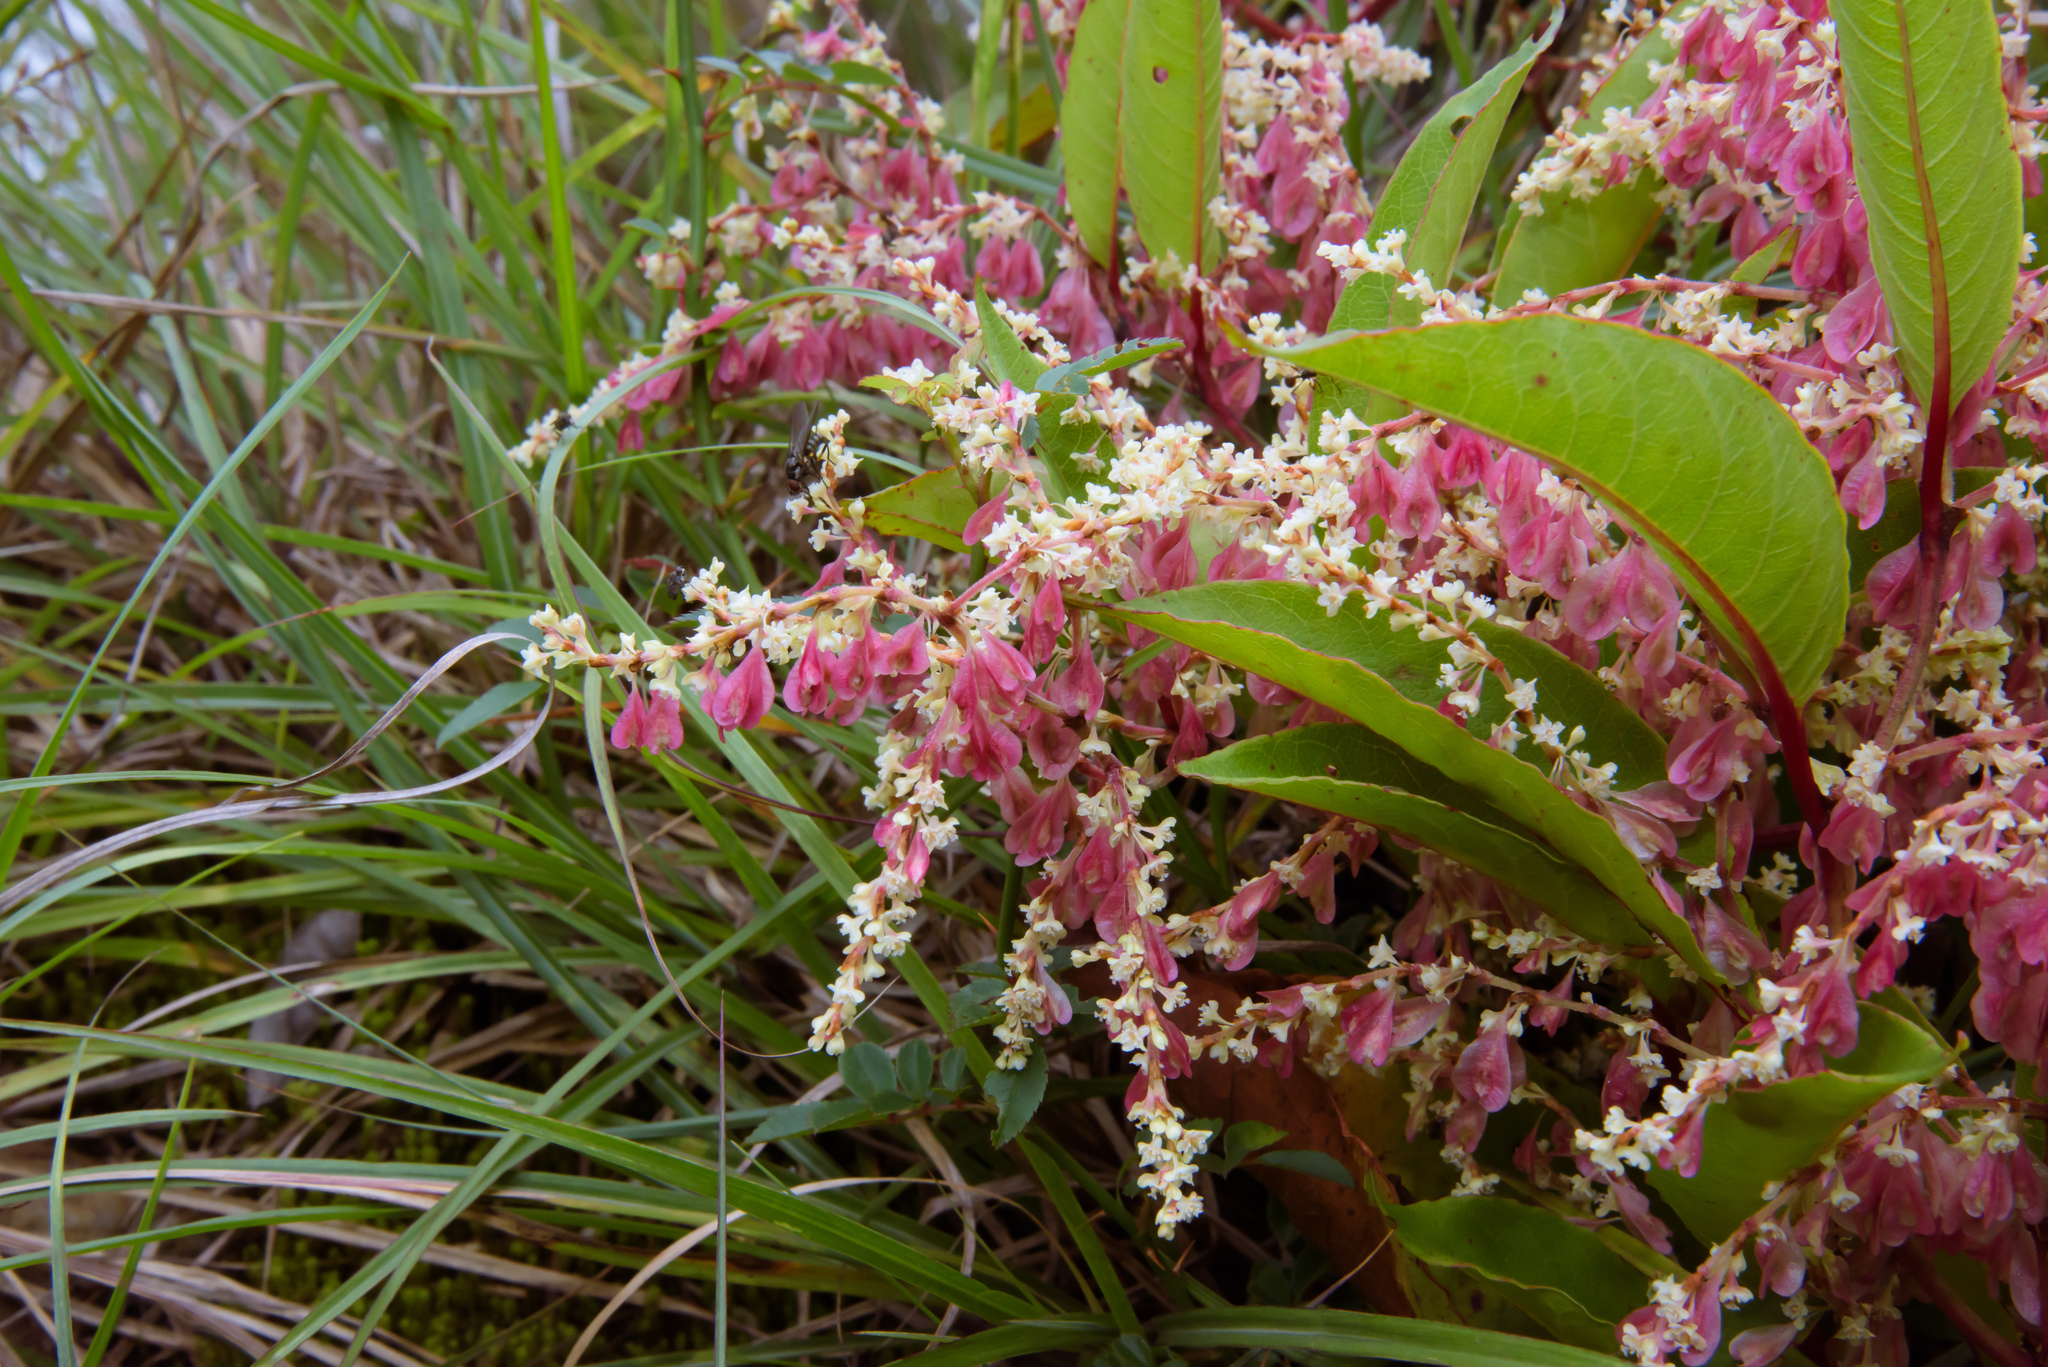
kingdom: Plantae
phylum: Tracheophyta
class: Magnoliopsida
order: Caryophyllales
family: Polygonaceae
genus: Reynoutria
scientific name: Reynoutria japonica
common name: Japanese knotweed
